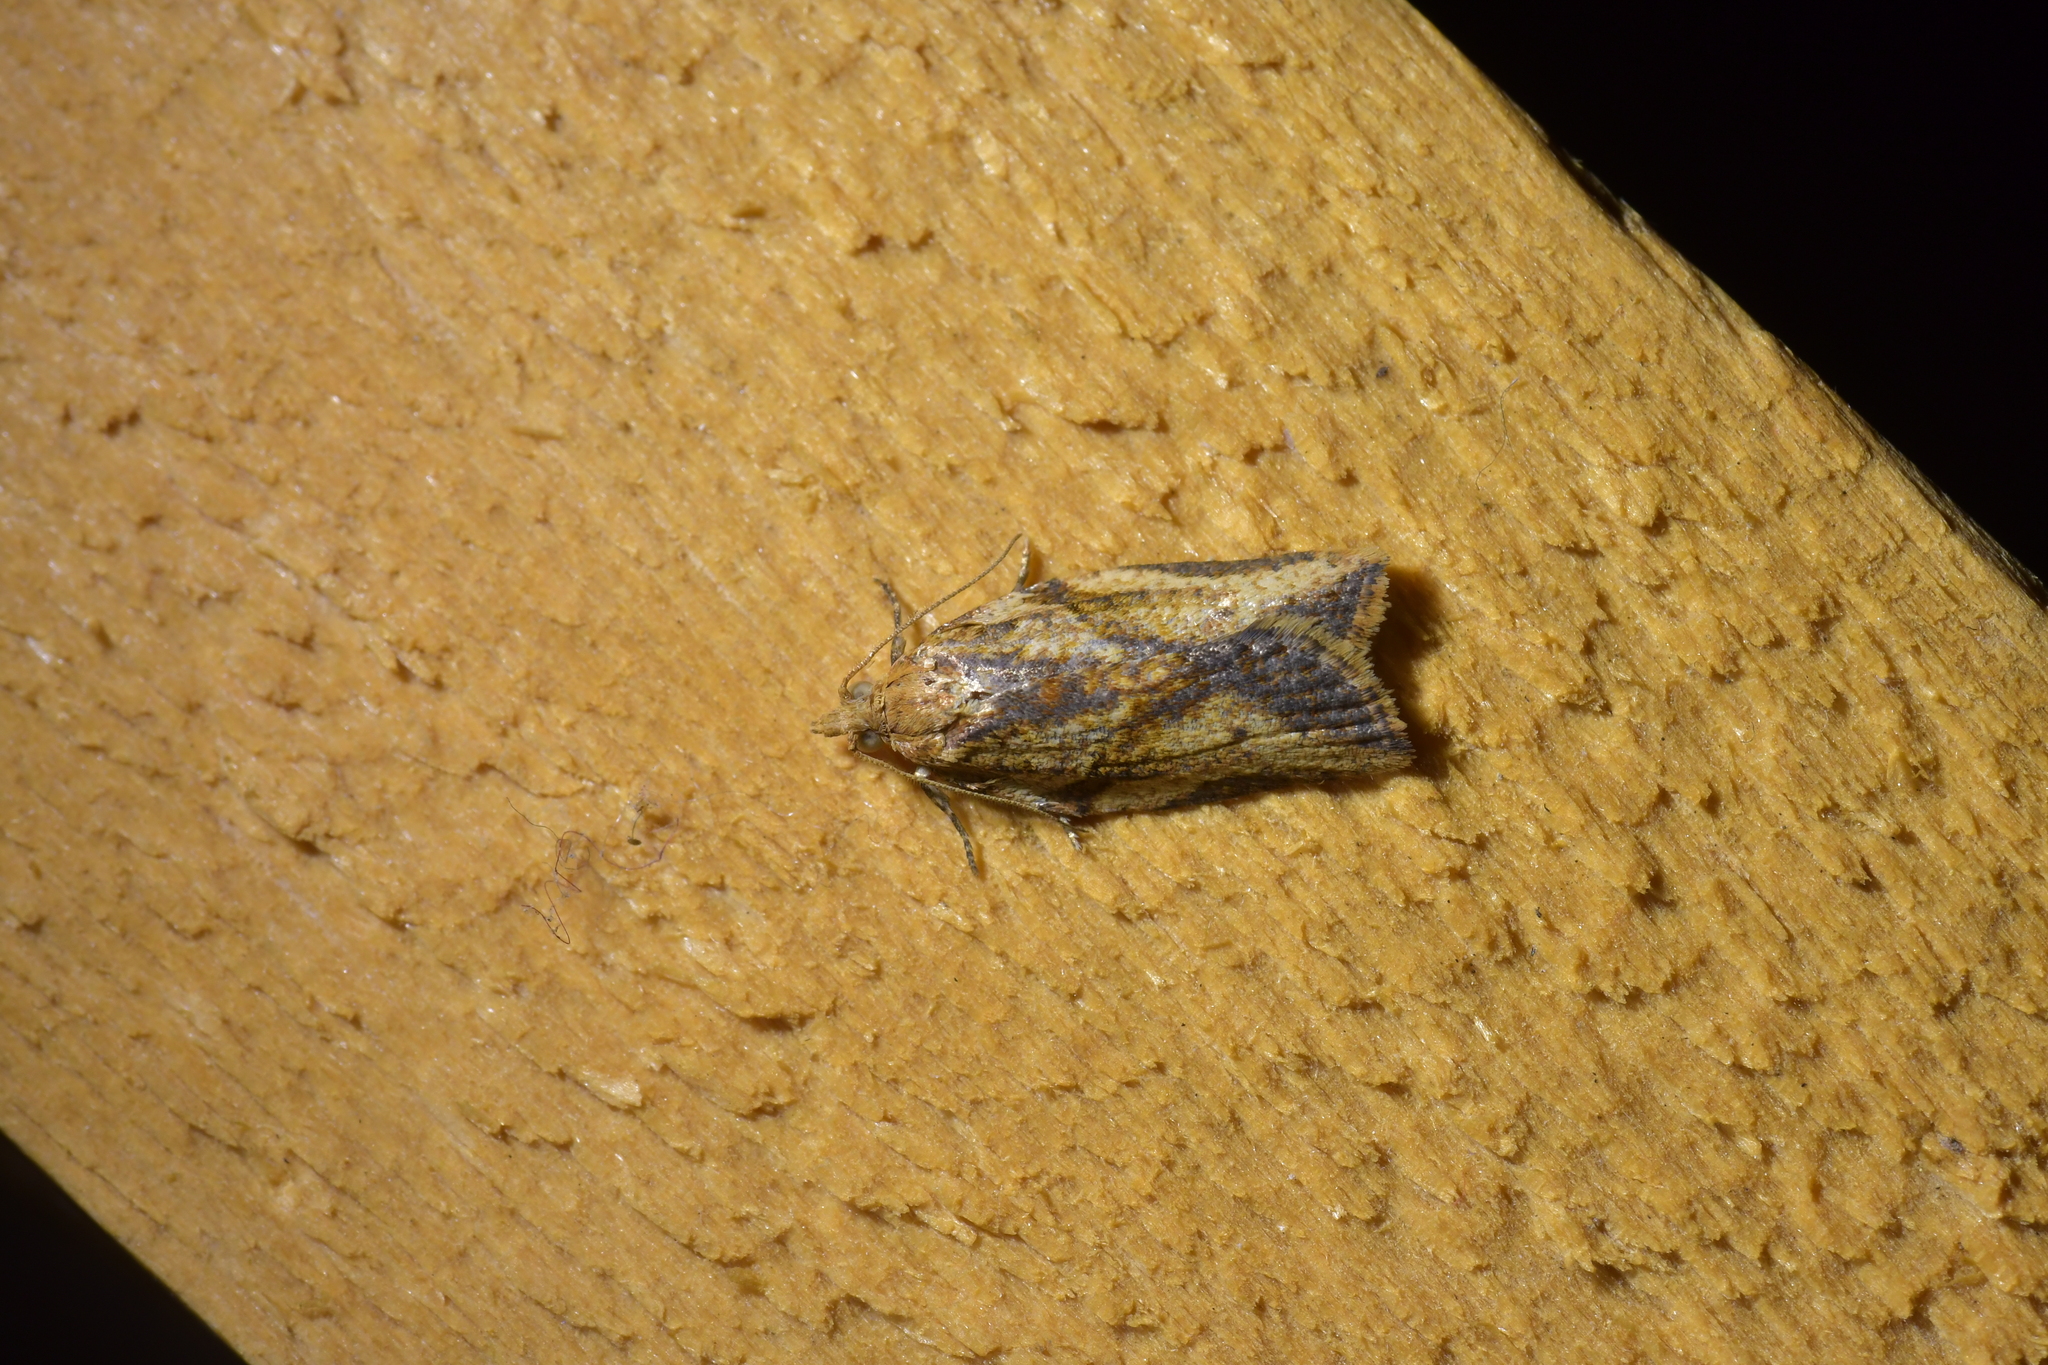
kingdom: Animalia
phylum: Arthropoda
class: Insecta
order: Lepidoptera
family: Tortricidae
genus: Epiphyas
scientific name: Epiphyas postvittana
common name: Light brown apple moth
